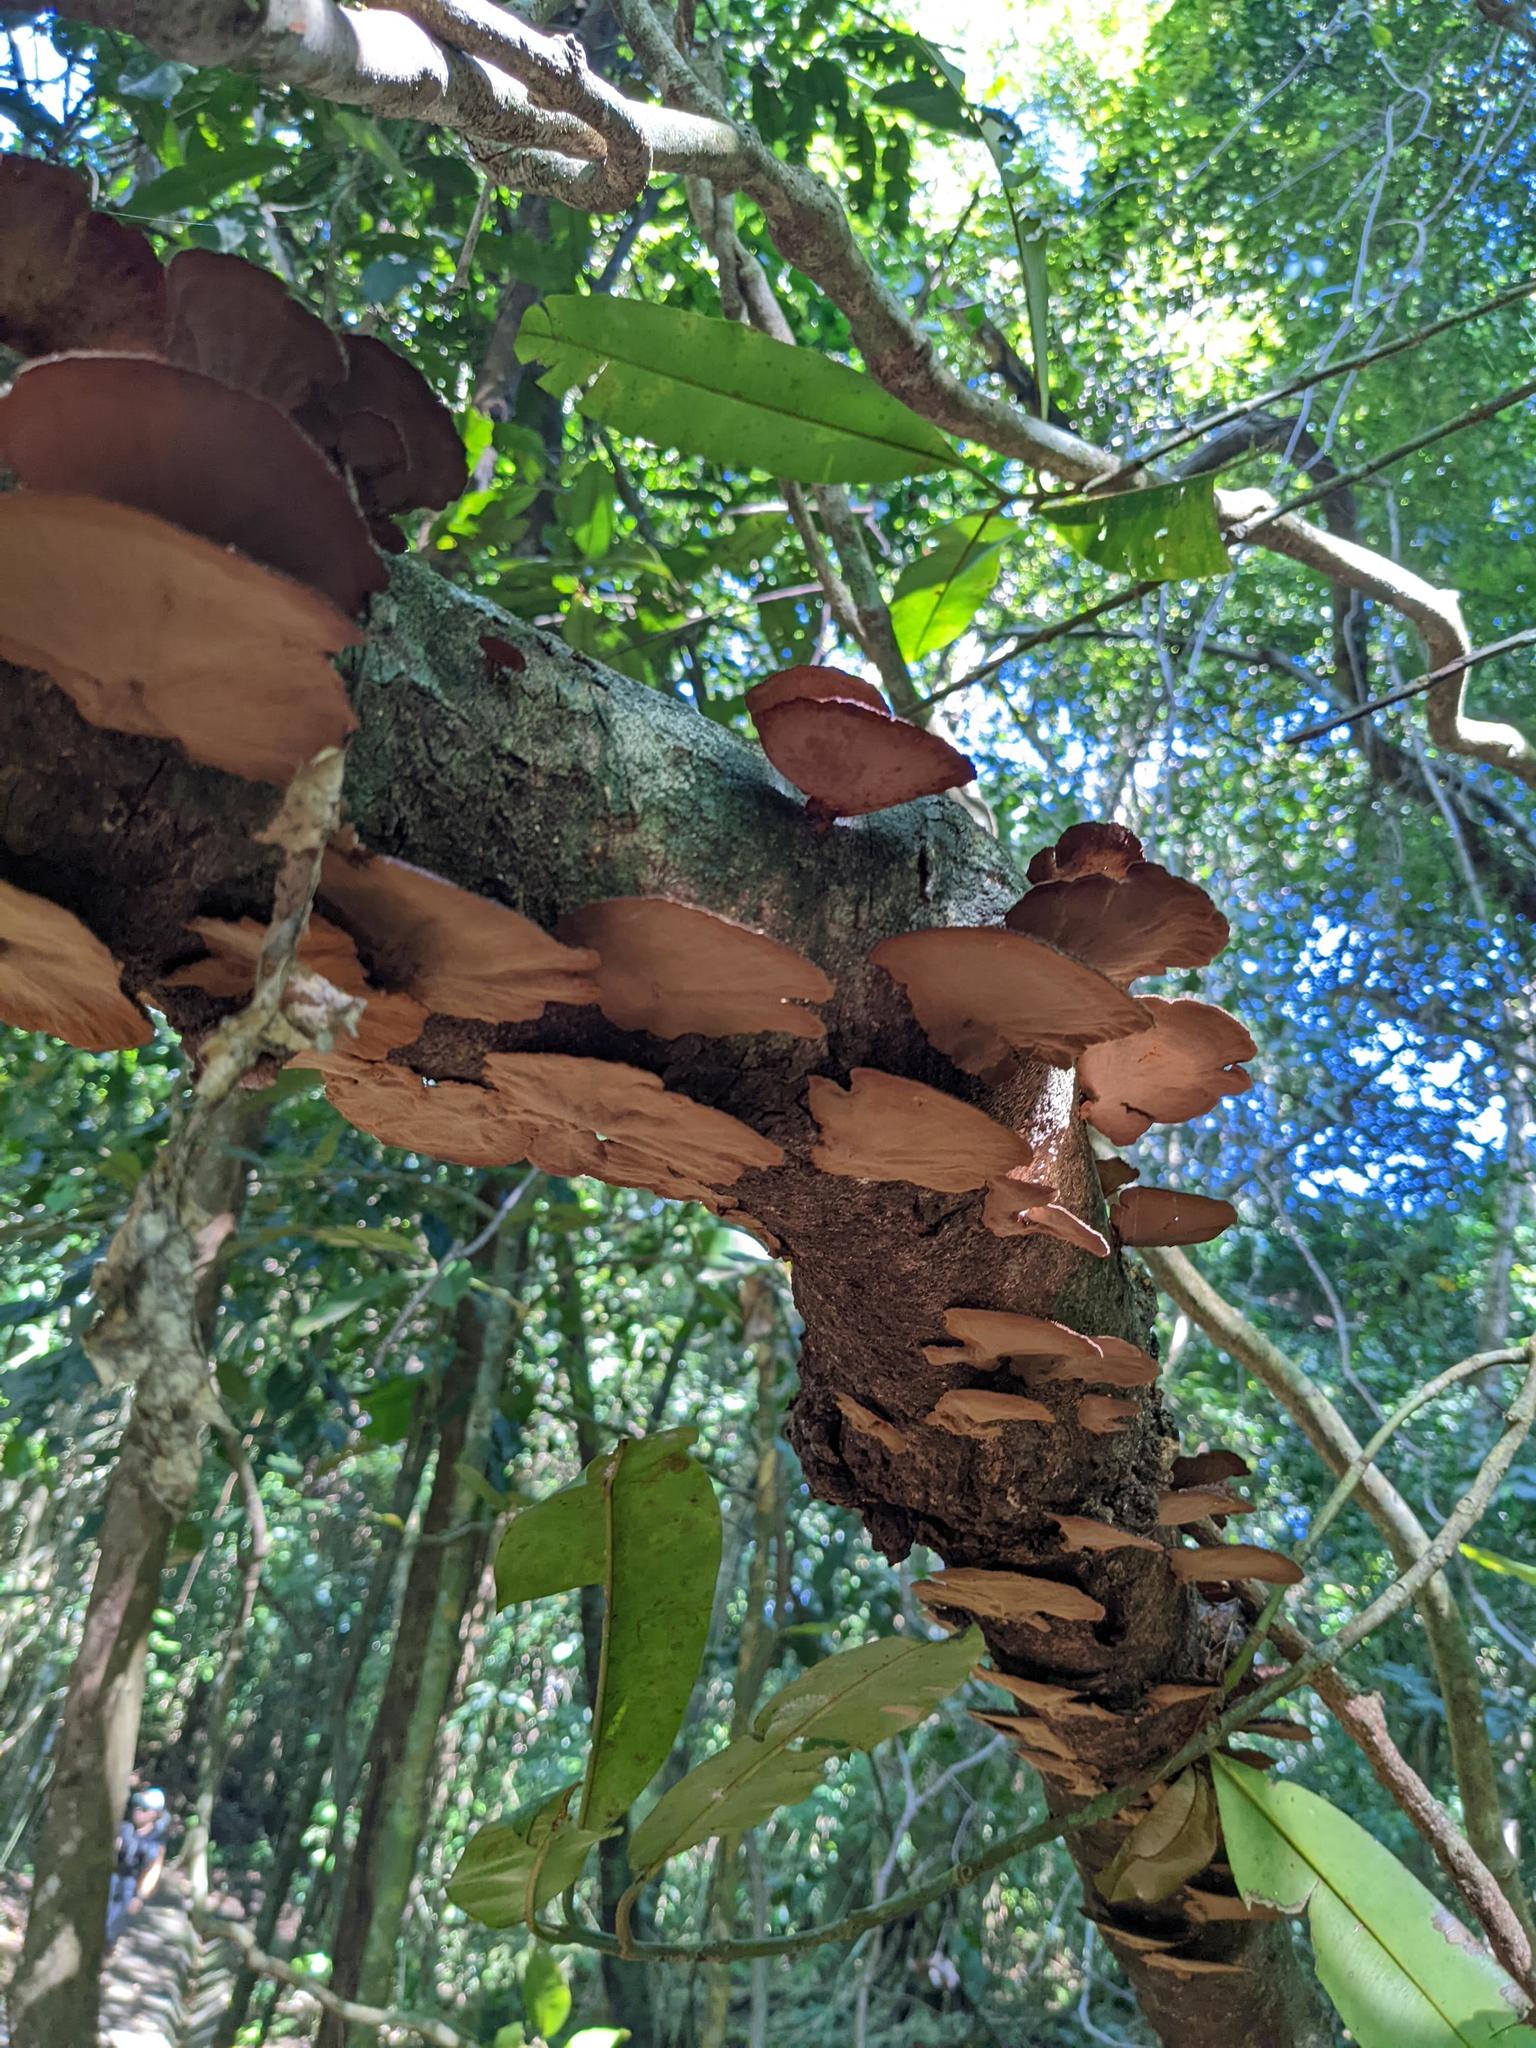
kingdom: Fungi
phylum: Basidiomycota
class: Agaricomycetes
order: Polyporales
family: Cerrenaceae
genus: Cerrena
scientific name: Cerrena hydnoides
